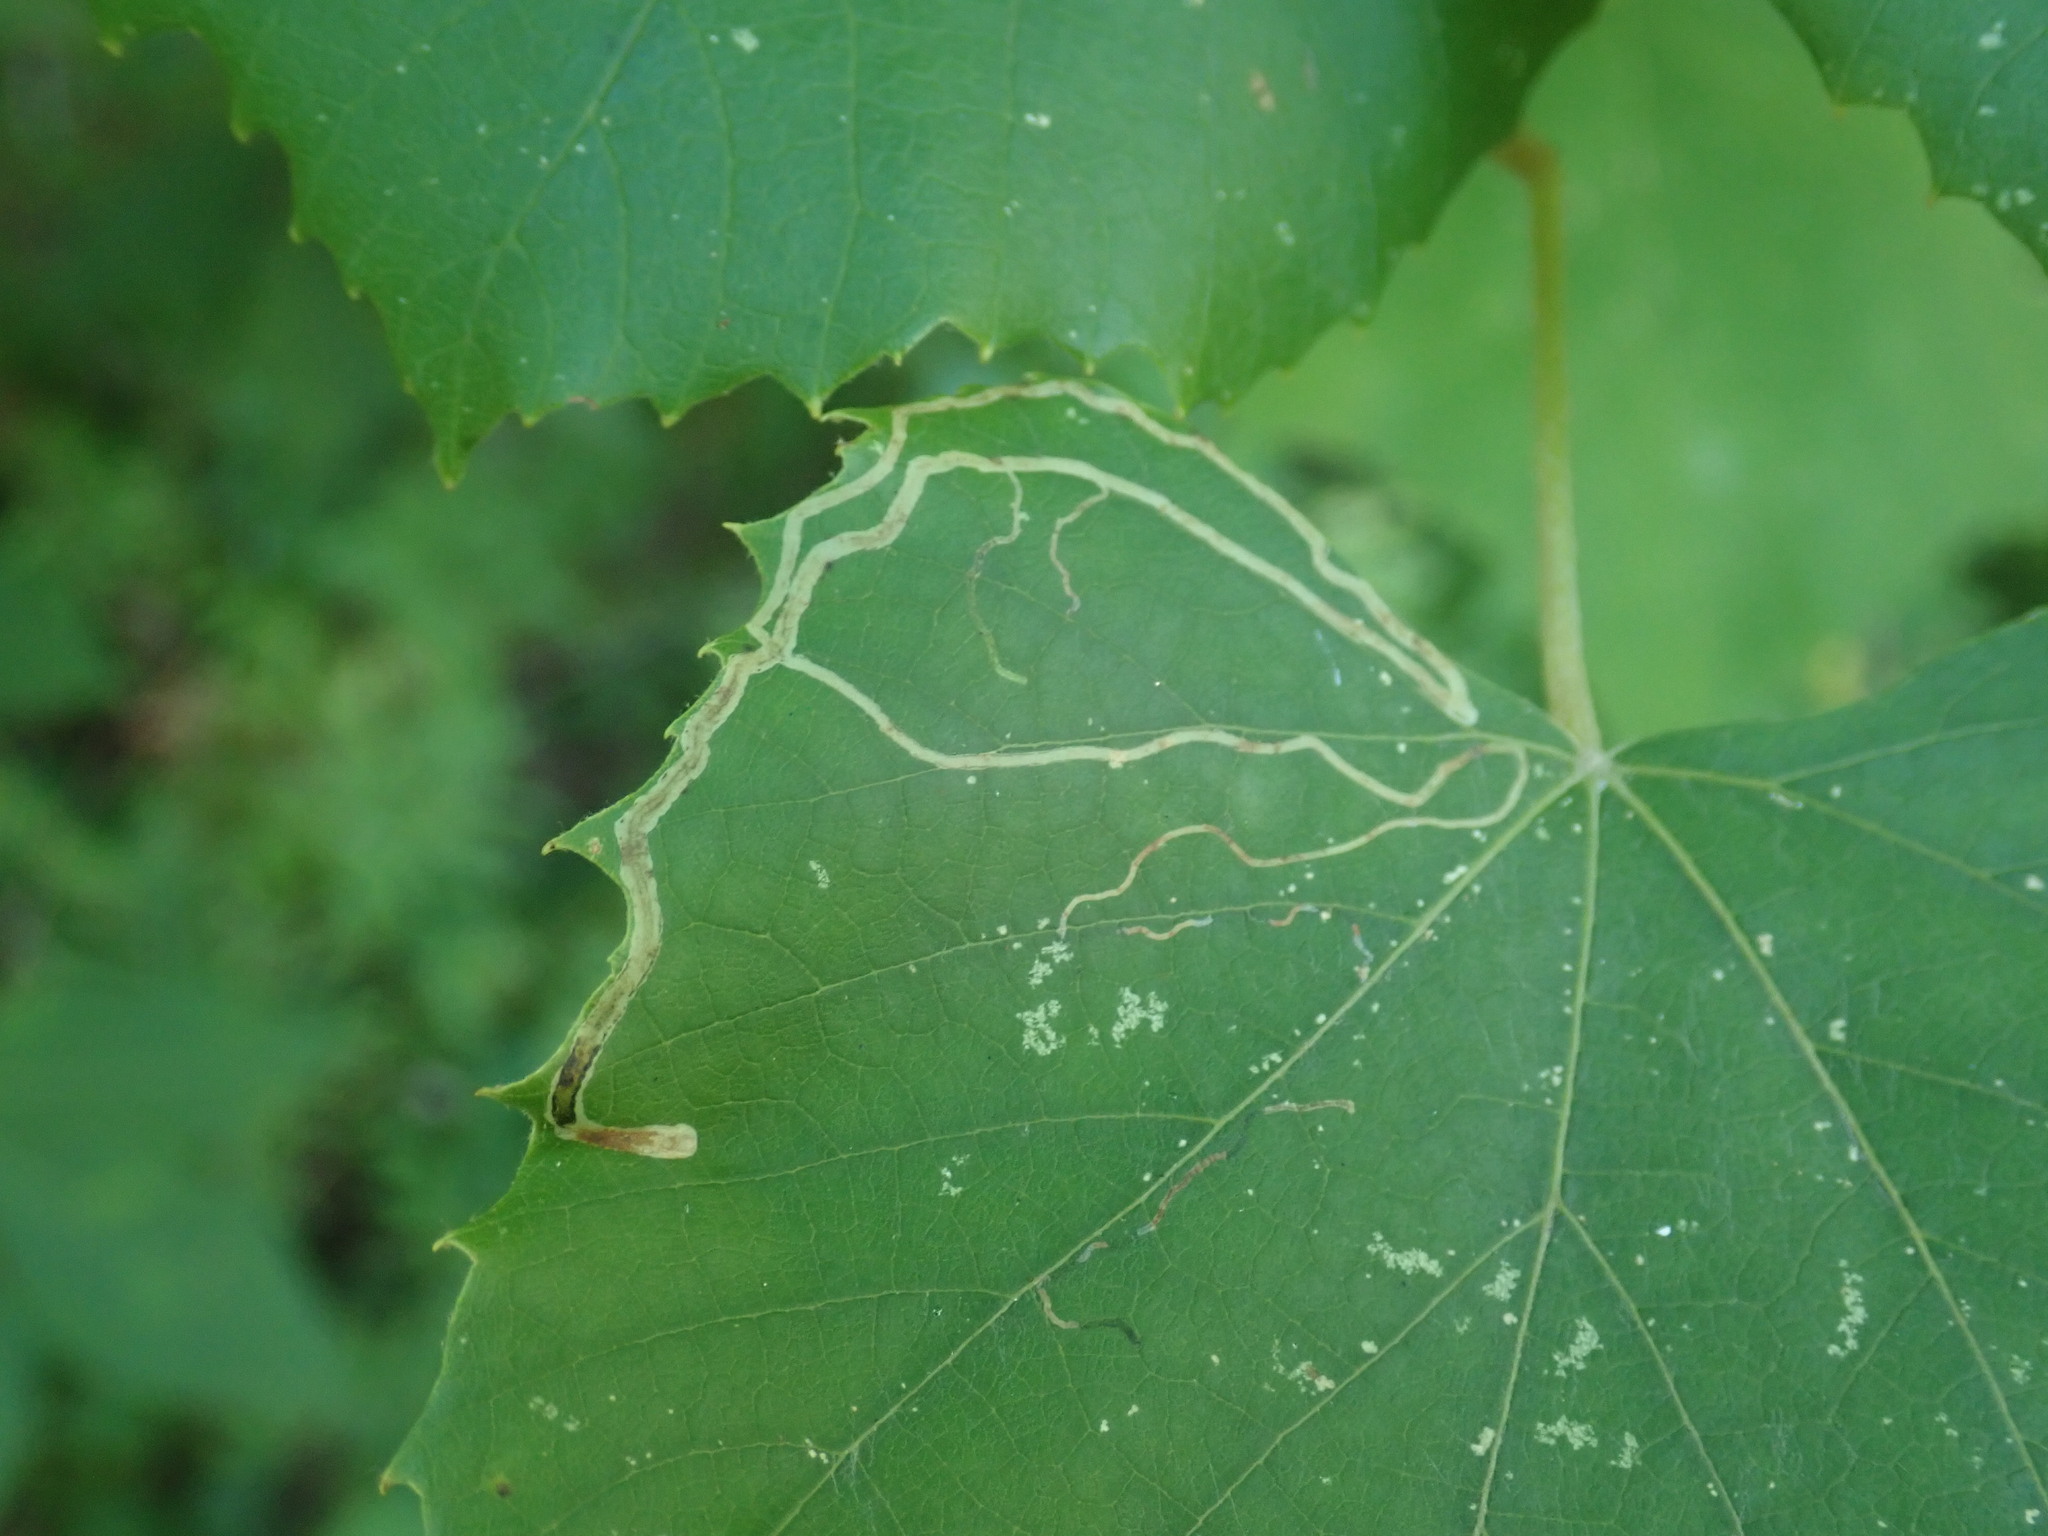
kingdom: Animalia
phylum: Arthropoda
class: Insecta
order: Lepidoptera
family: Gracillariidae
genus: Phyllocnistis
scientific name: Phyllocnistis vitifoliella
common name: Grape leaf-miner moth
